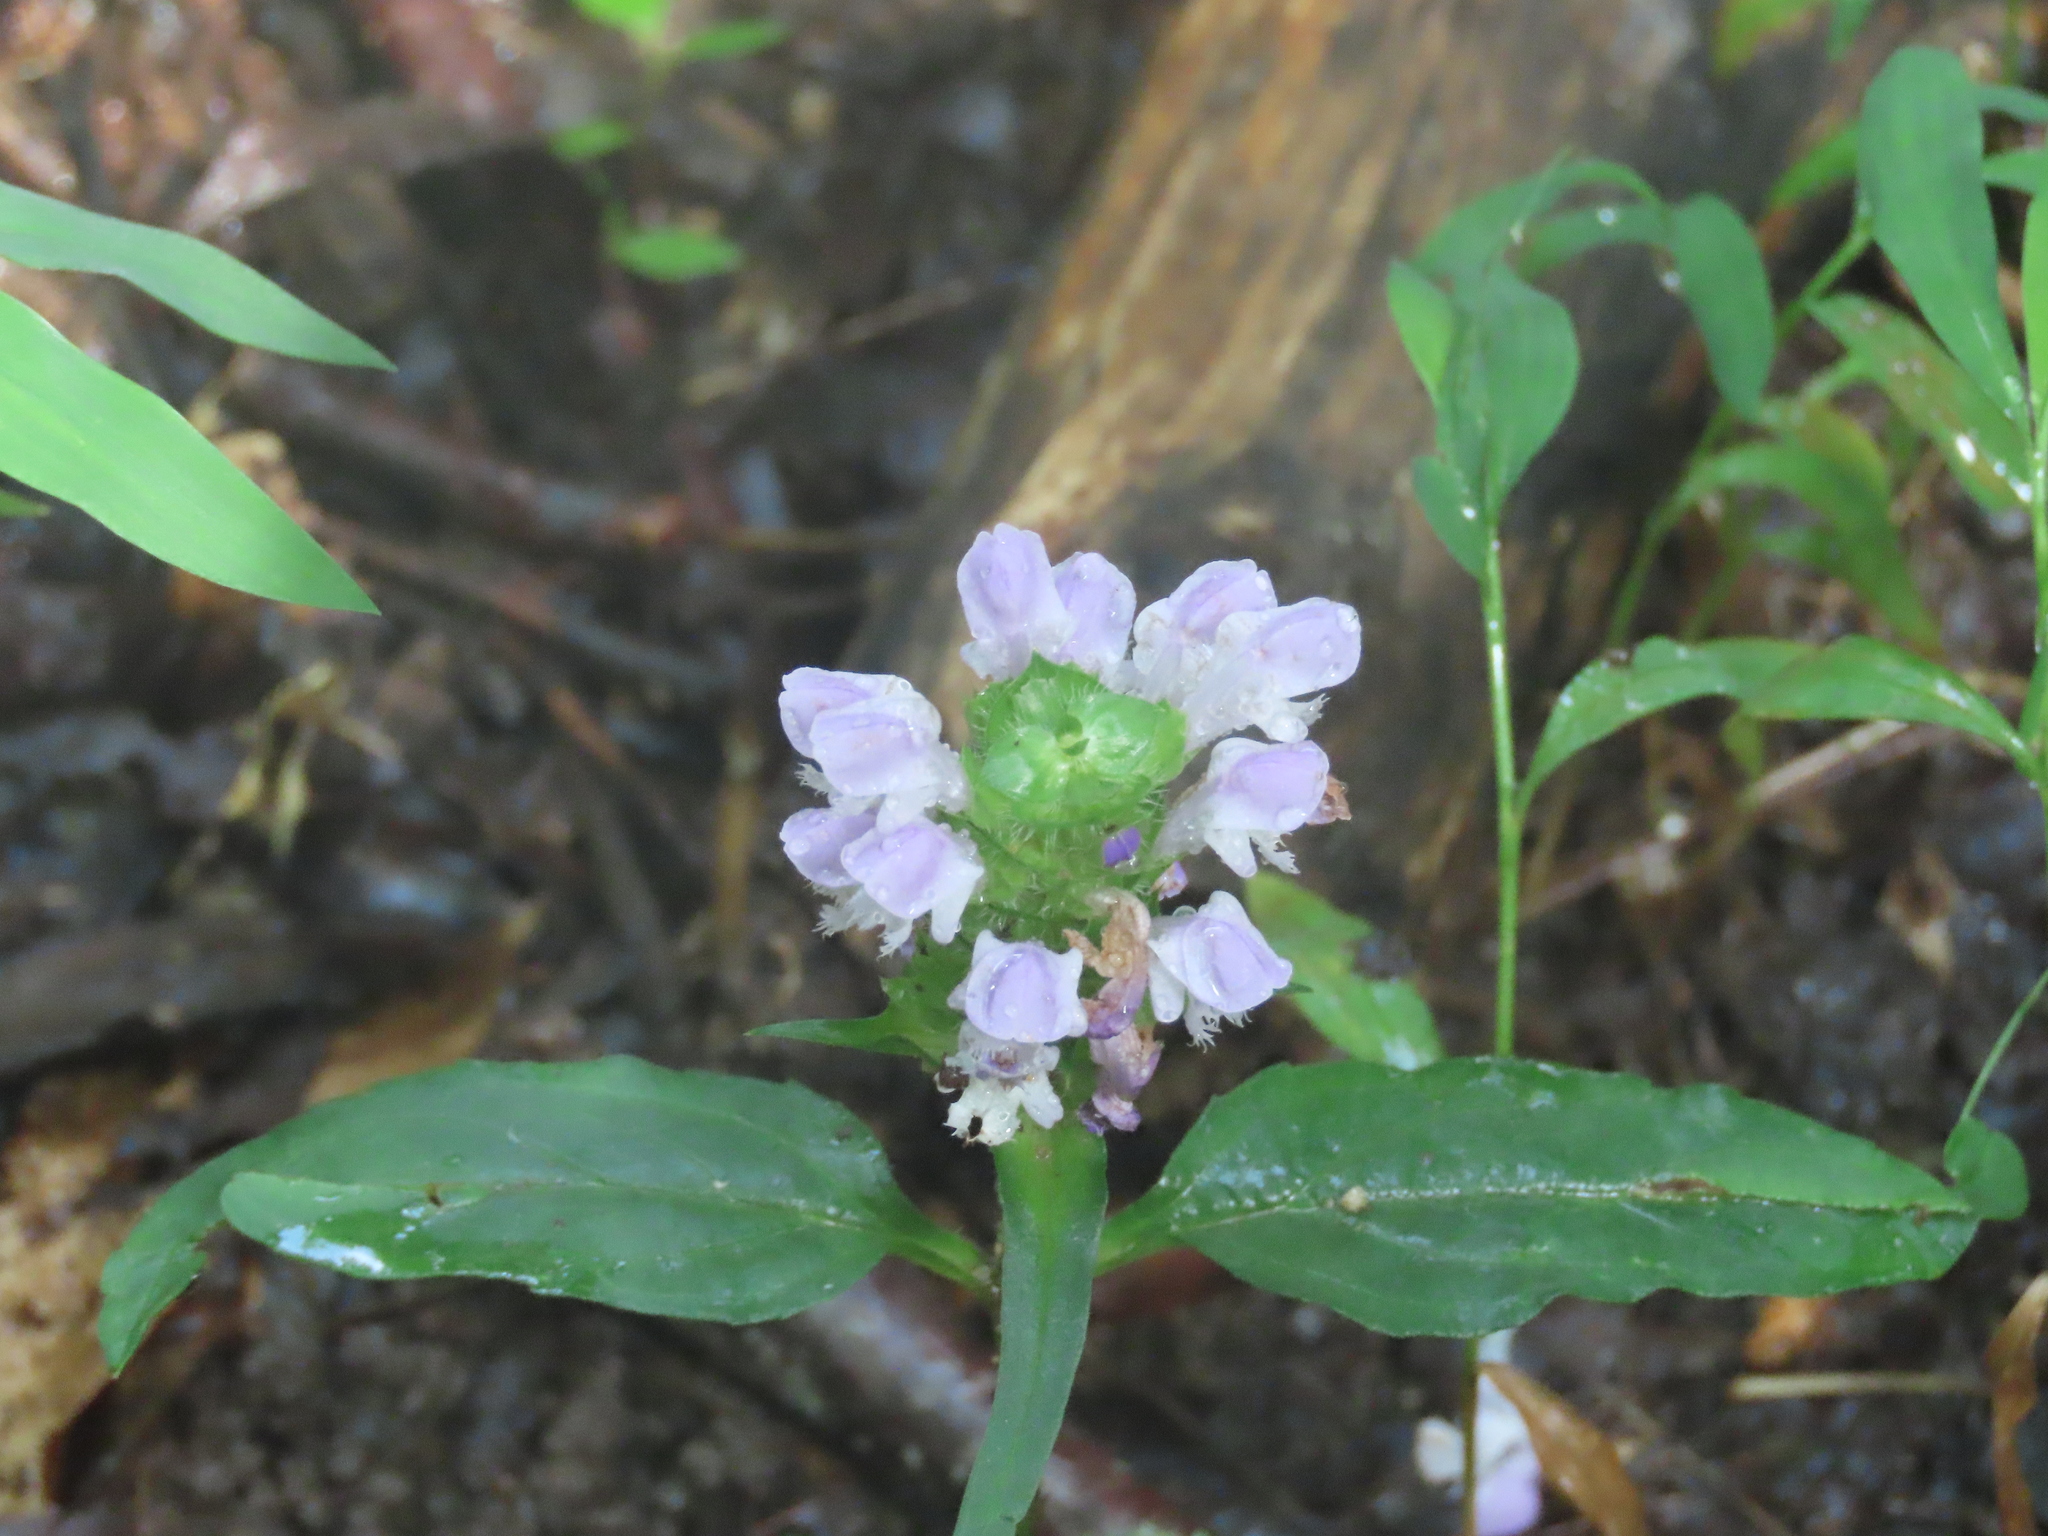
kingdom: Plantae
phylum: Tracheophyta
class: Magnoliopsida
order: Lamiales
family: Lamiaceae
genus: Prunella
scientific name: Prunella vulgaris
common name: Heal-all
